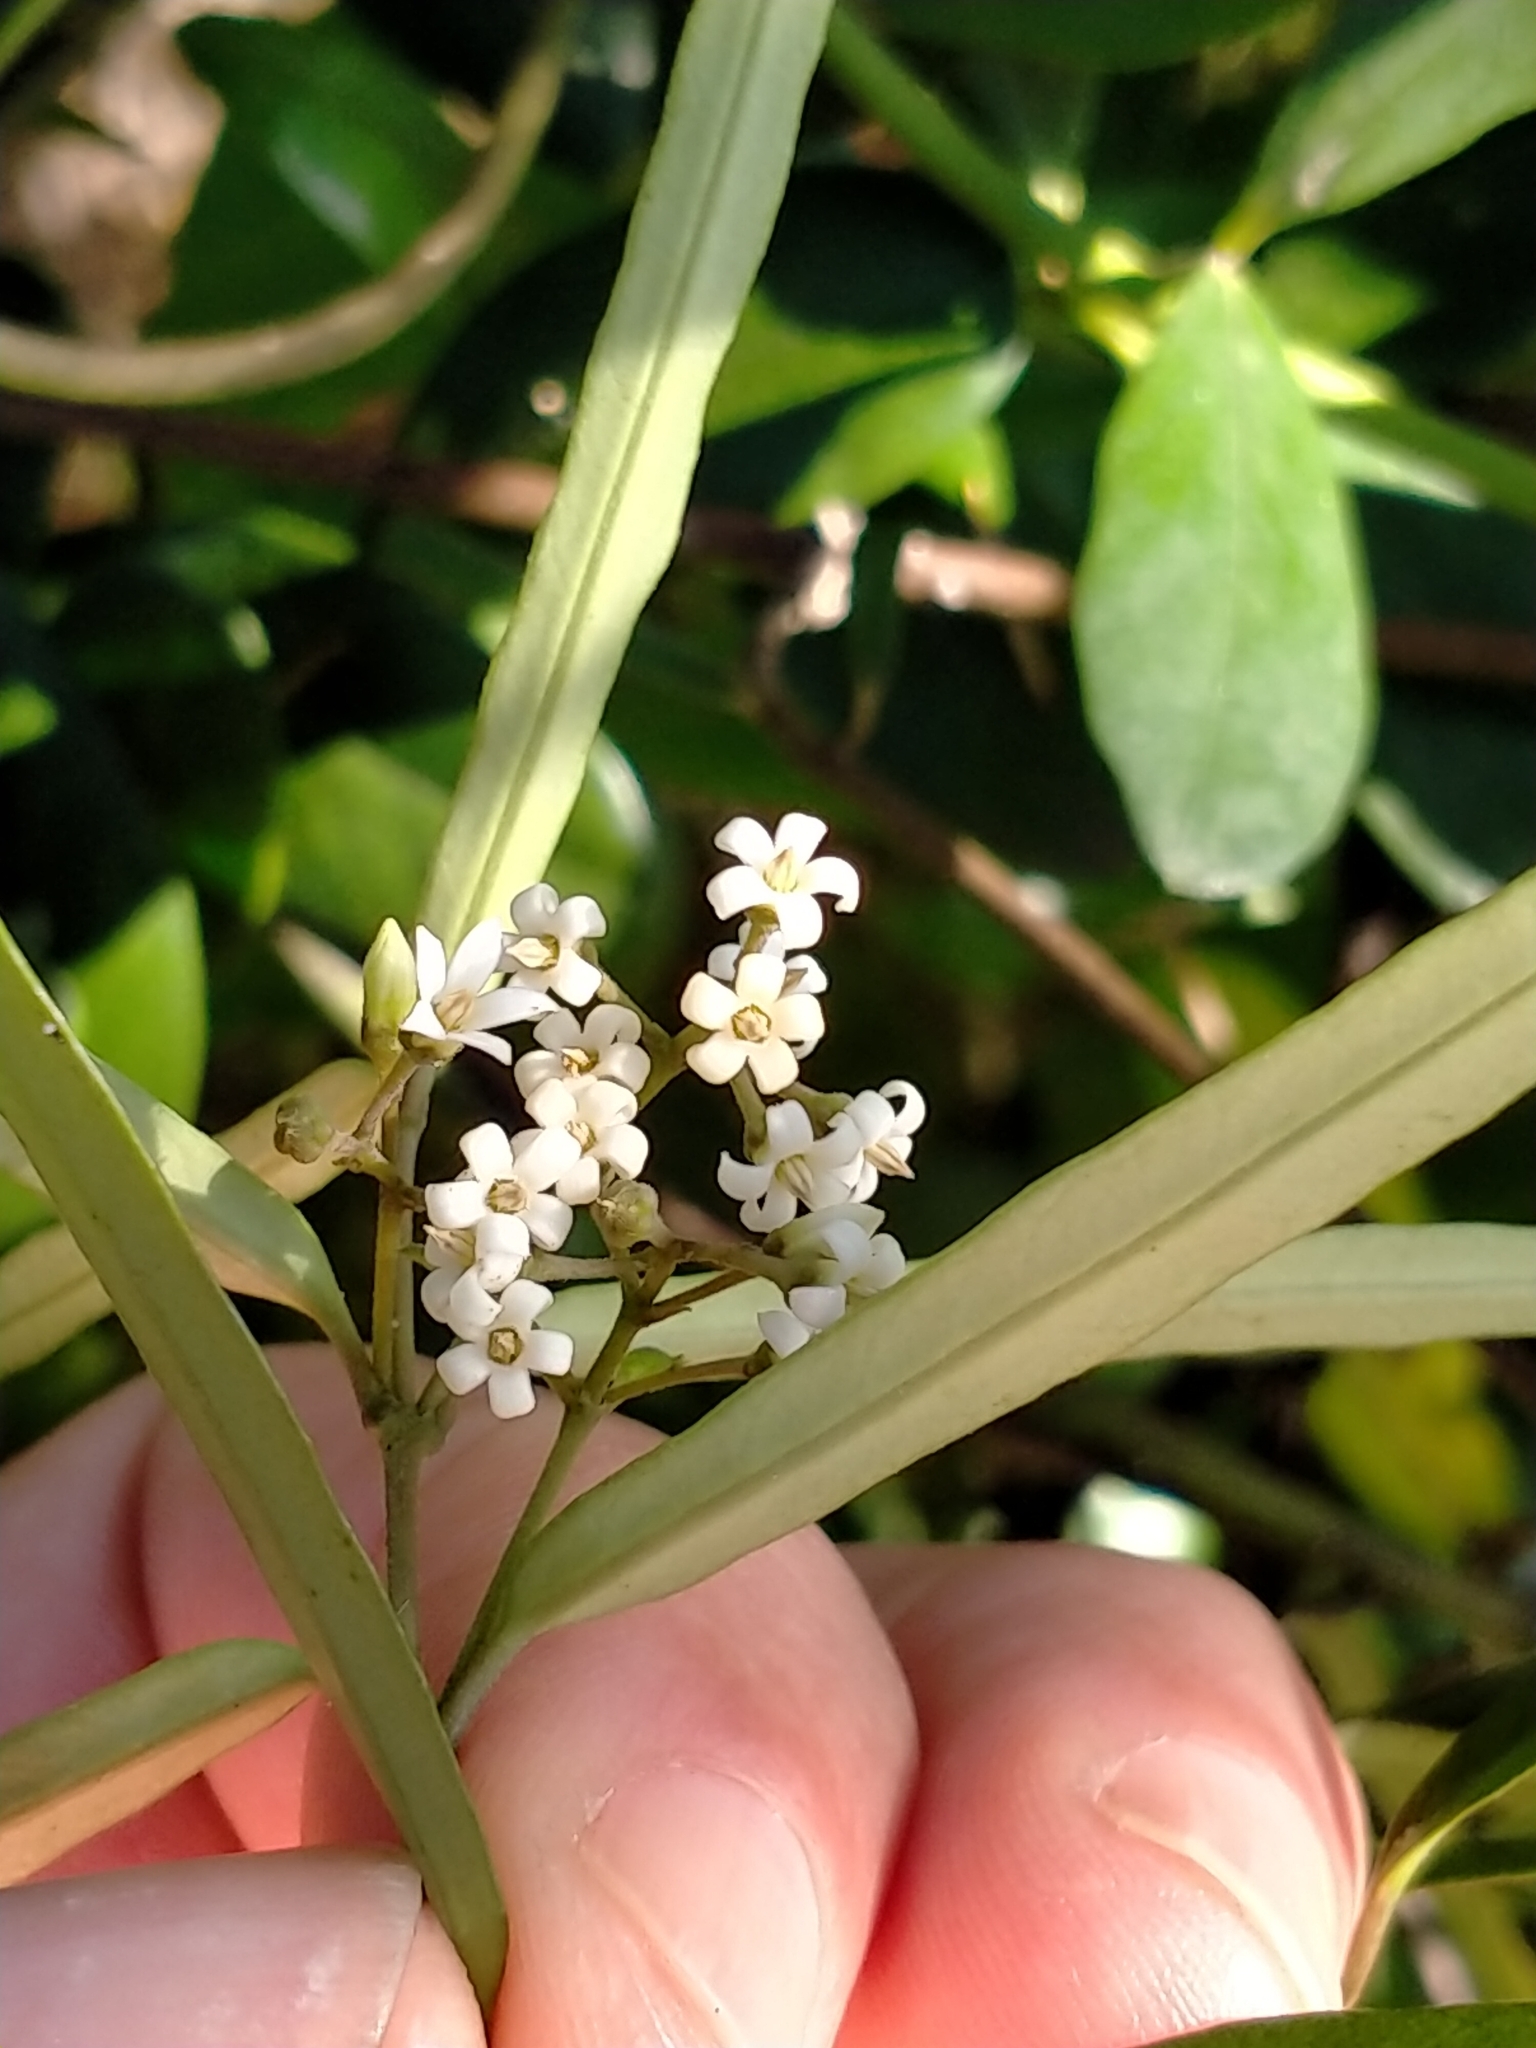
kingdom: Plantae
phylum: Tracheophyta
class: Magnoliopsida
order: Gentianales
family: Apocynaceae
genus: Parsonsia
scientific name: Parsonsia capsularis
